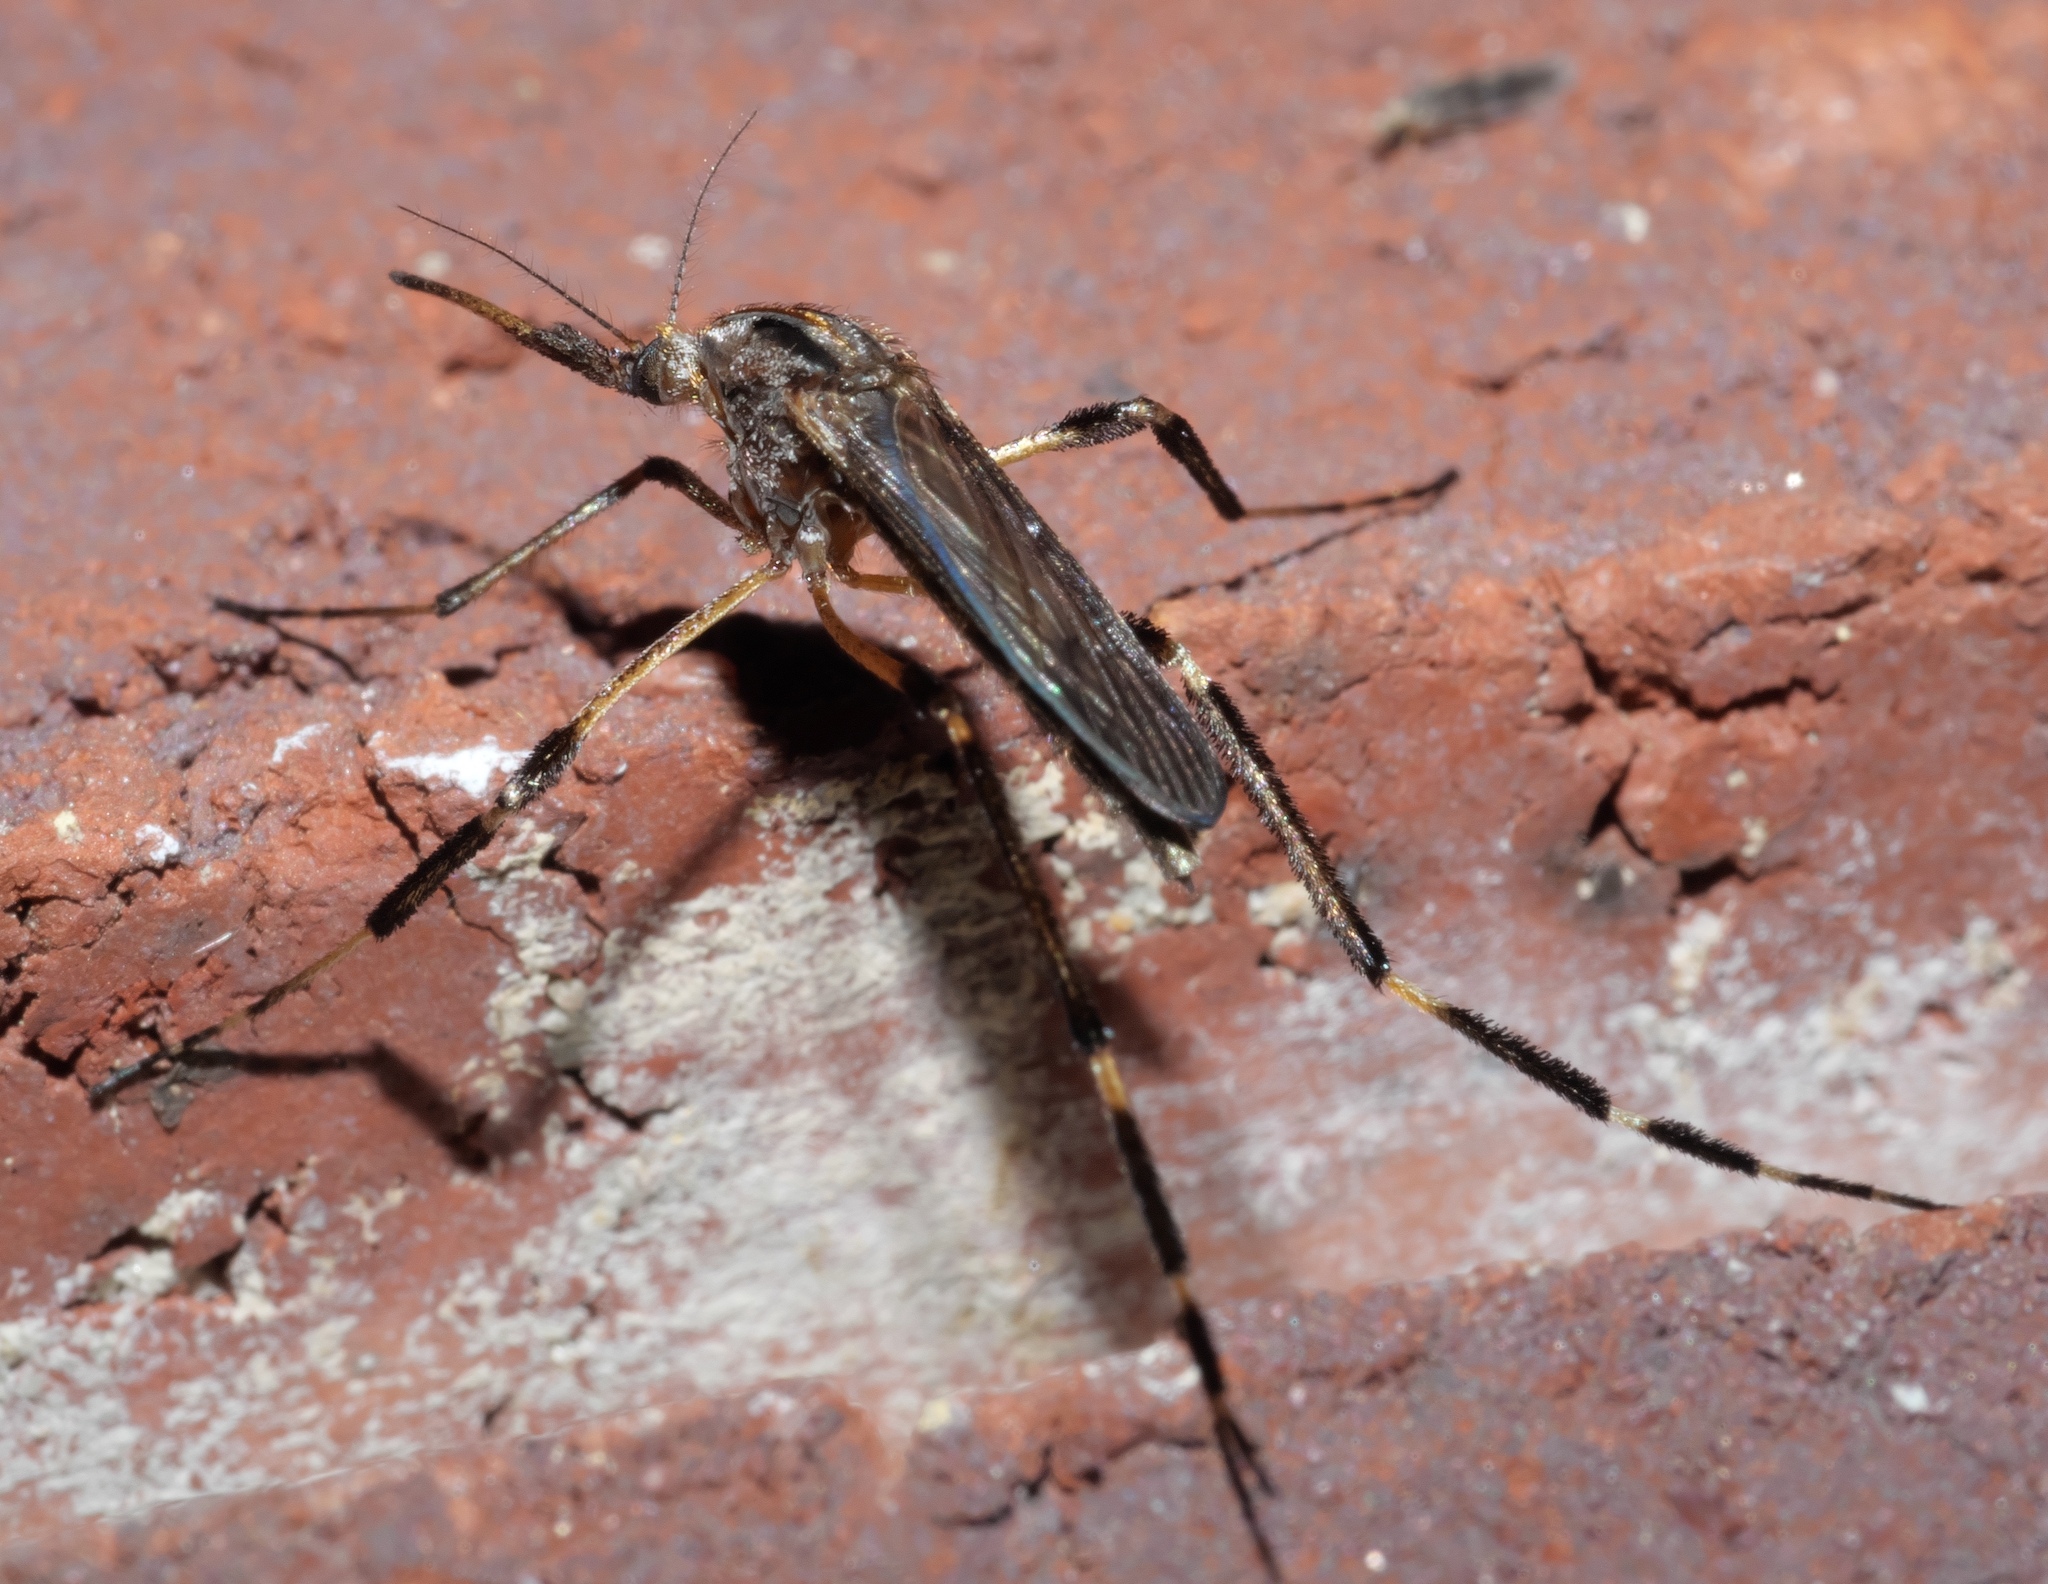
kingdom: Animalia
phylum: Arthropoda
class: Insecta
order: Diptera
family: Culicidae
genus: Psorophora
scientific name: Psorophora ciliata
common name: Gallinipper
